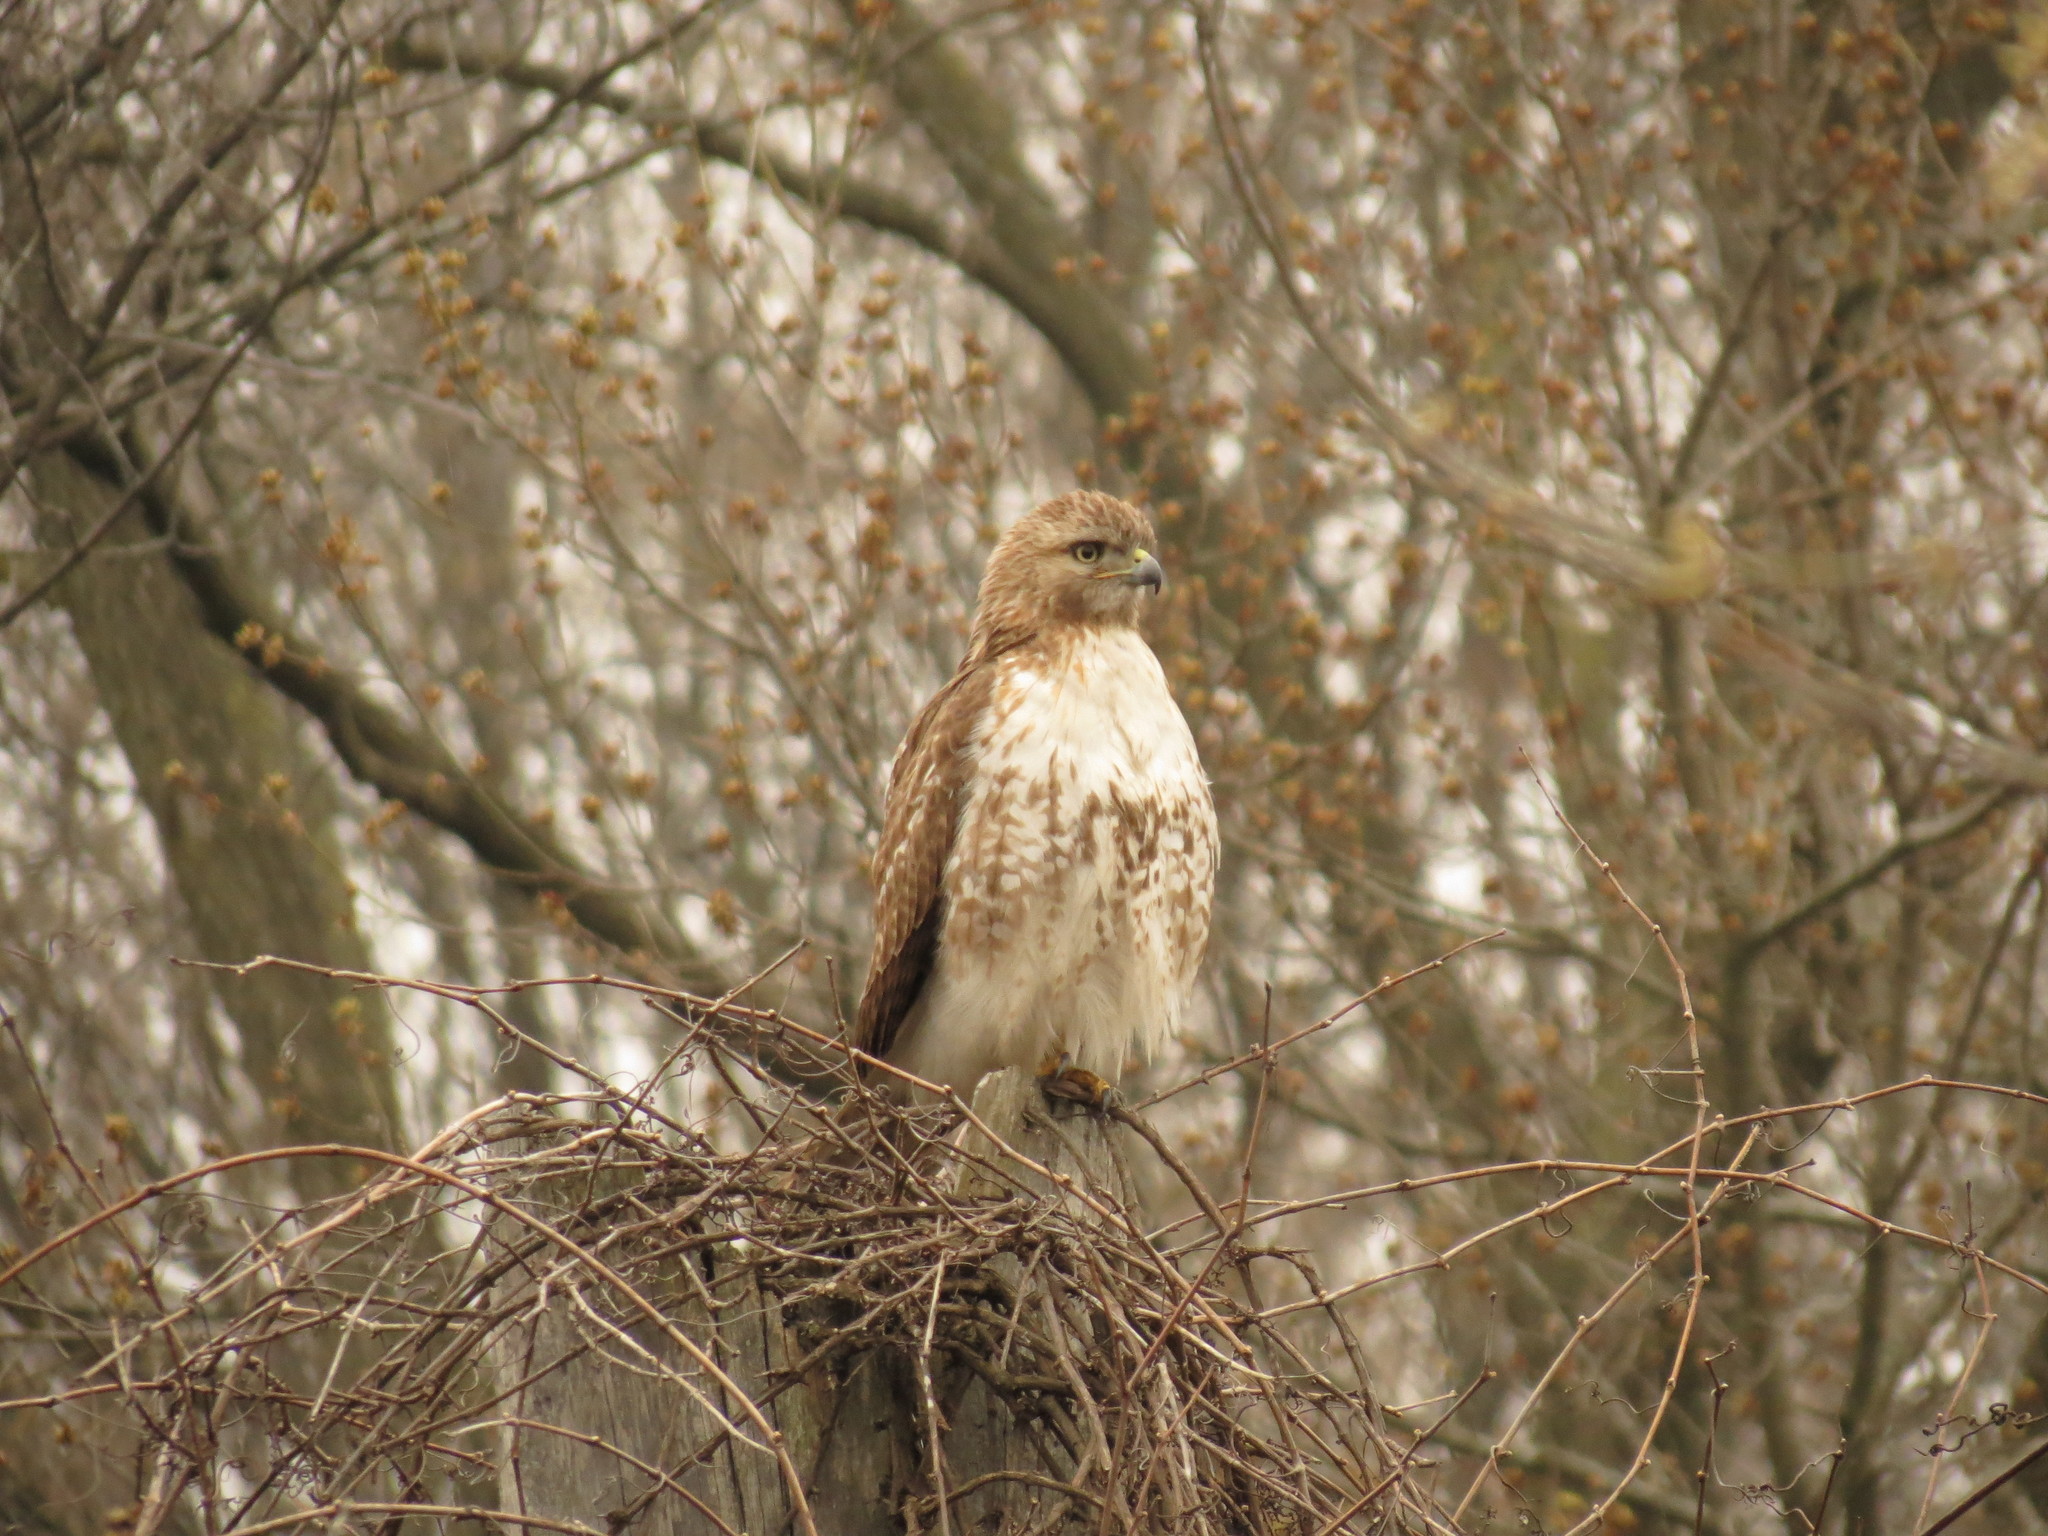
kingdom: Animalia
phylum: Chordata
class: Aves
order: Accipitriformes
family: Accipitridae
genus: Buteo
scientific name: Buteo jamaicensis
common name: Red-tailed hawk
